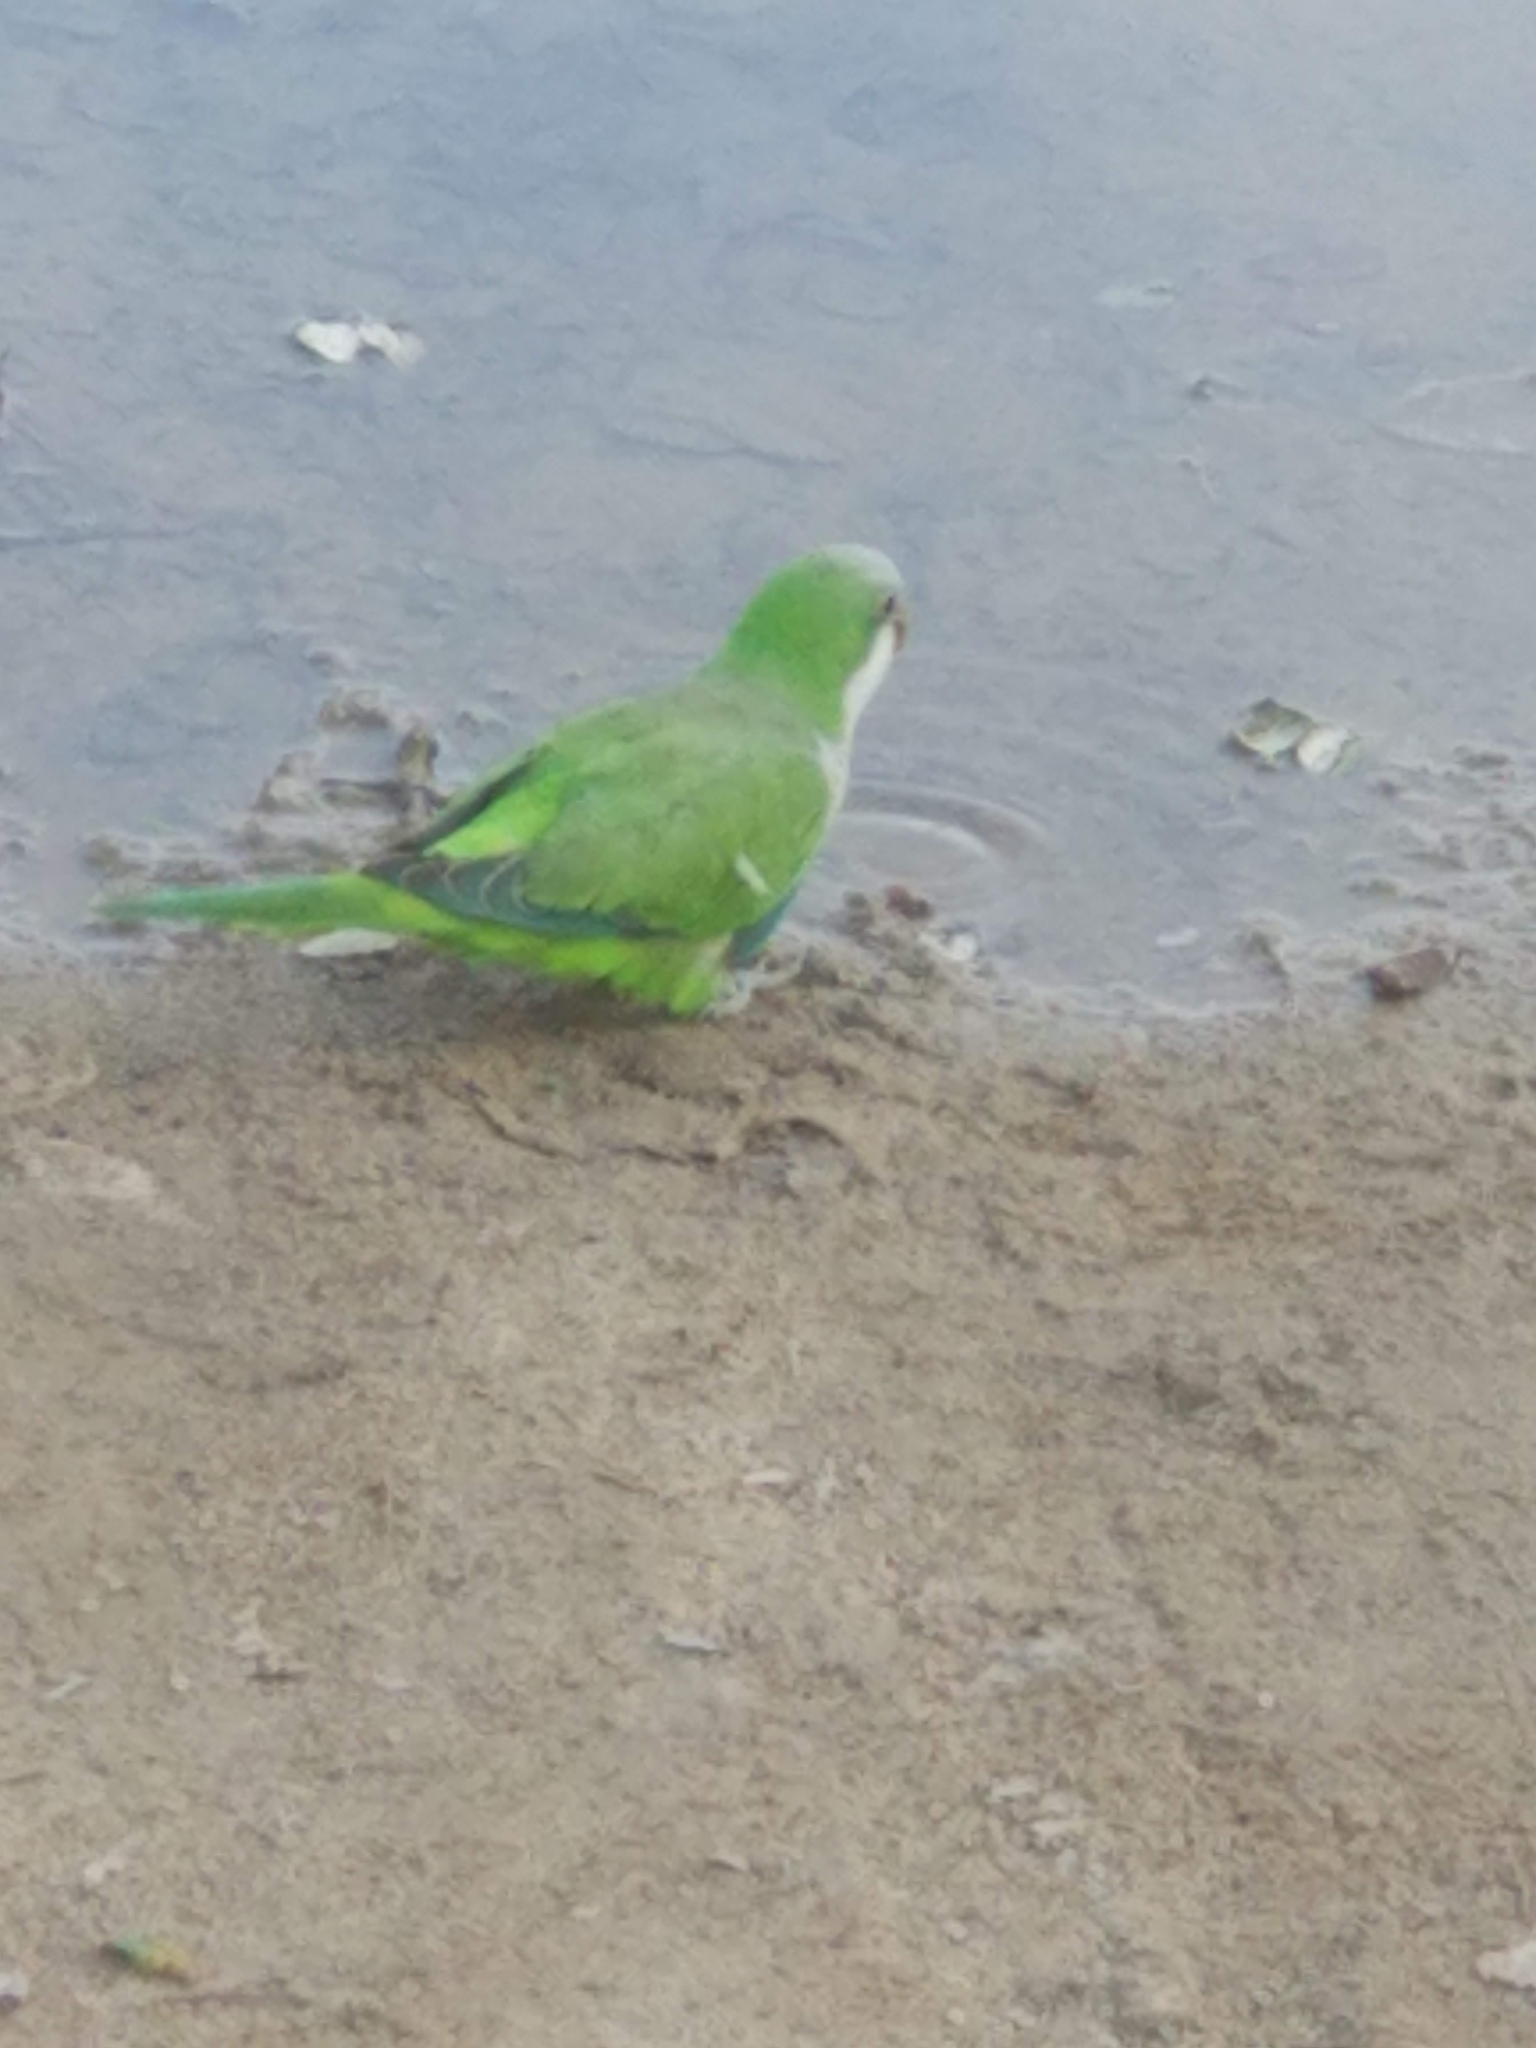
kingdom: Animalia
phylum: Chordata
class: Aves
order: Psittaciformes
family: Psittacidae
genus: Myiopsitta
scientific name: Myiopsitta monachus
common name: Monk parakeet
